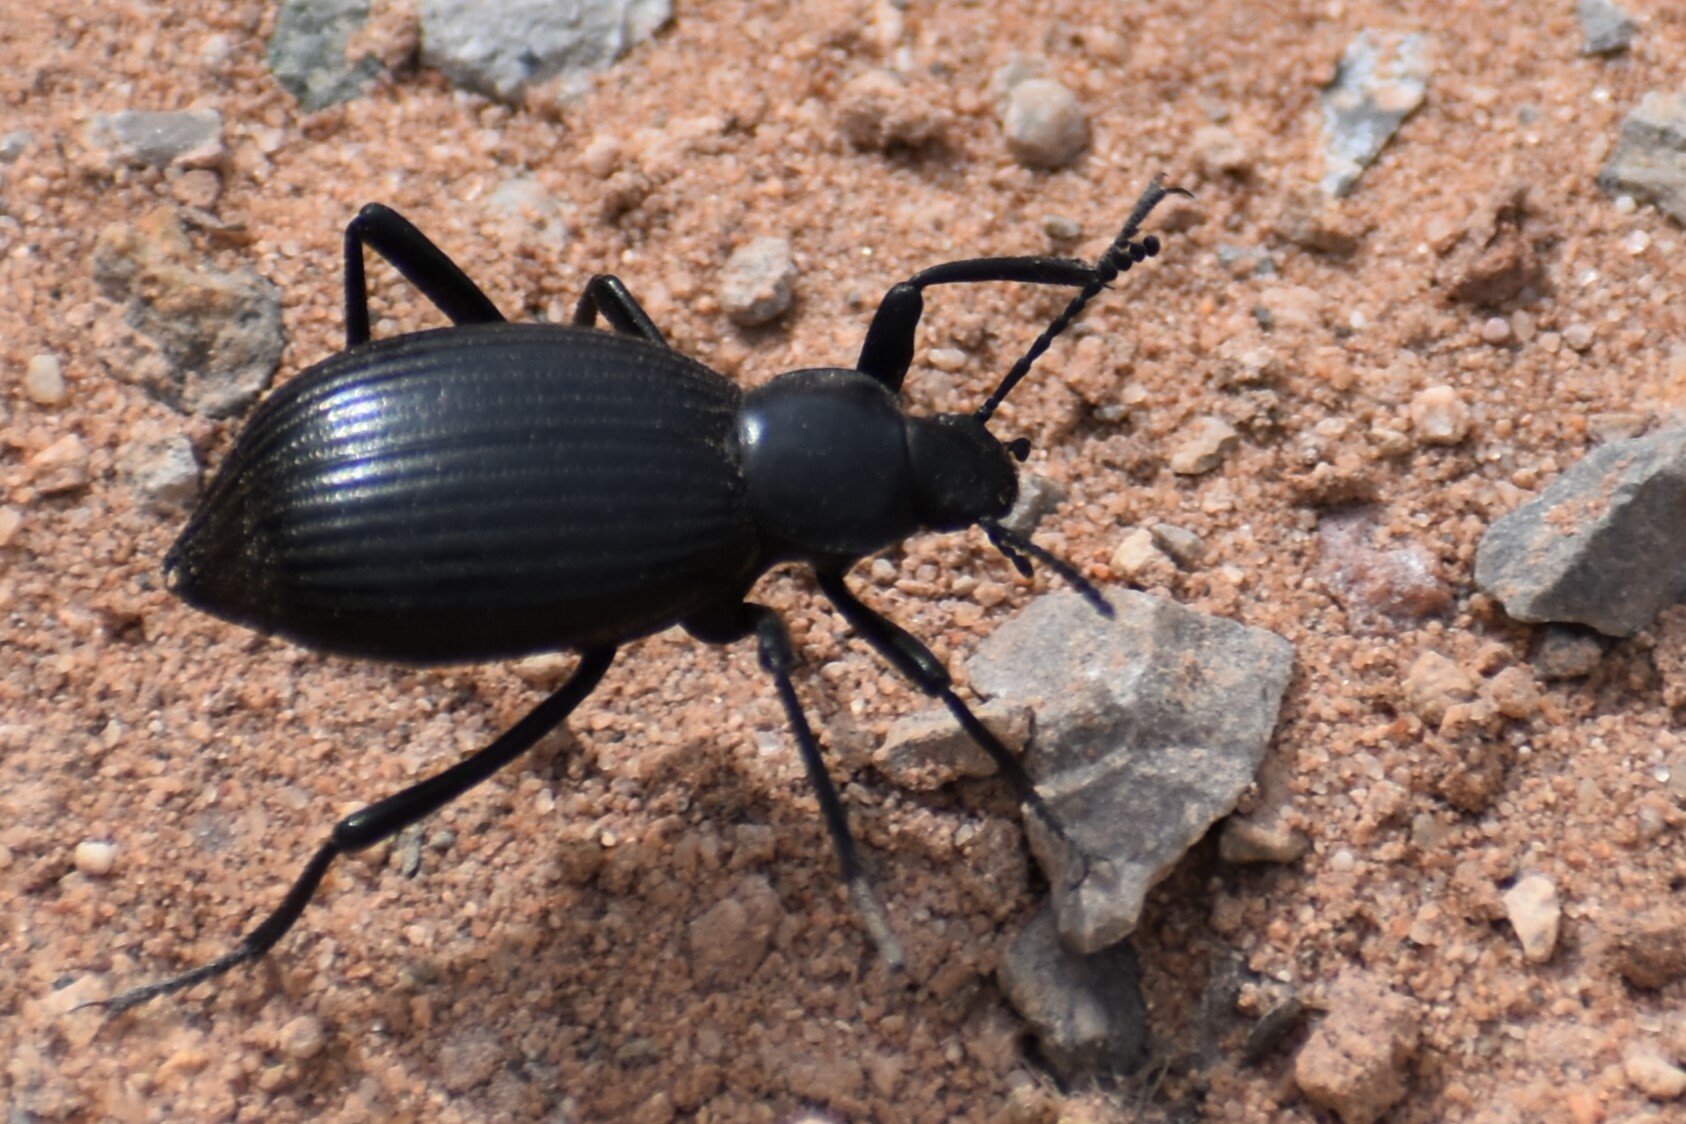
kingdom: Animalia
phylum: Arthropoda
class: Insecta
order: Coleoptera
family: Tenebrionidae
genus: Eleodes
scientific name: Eleodes hispilabris
